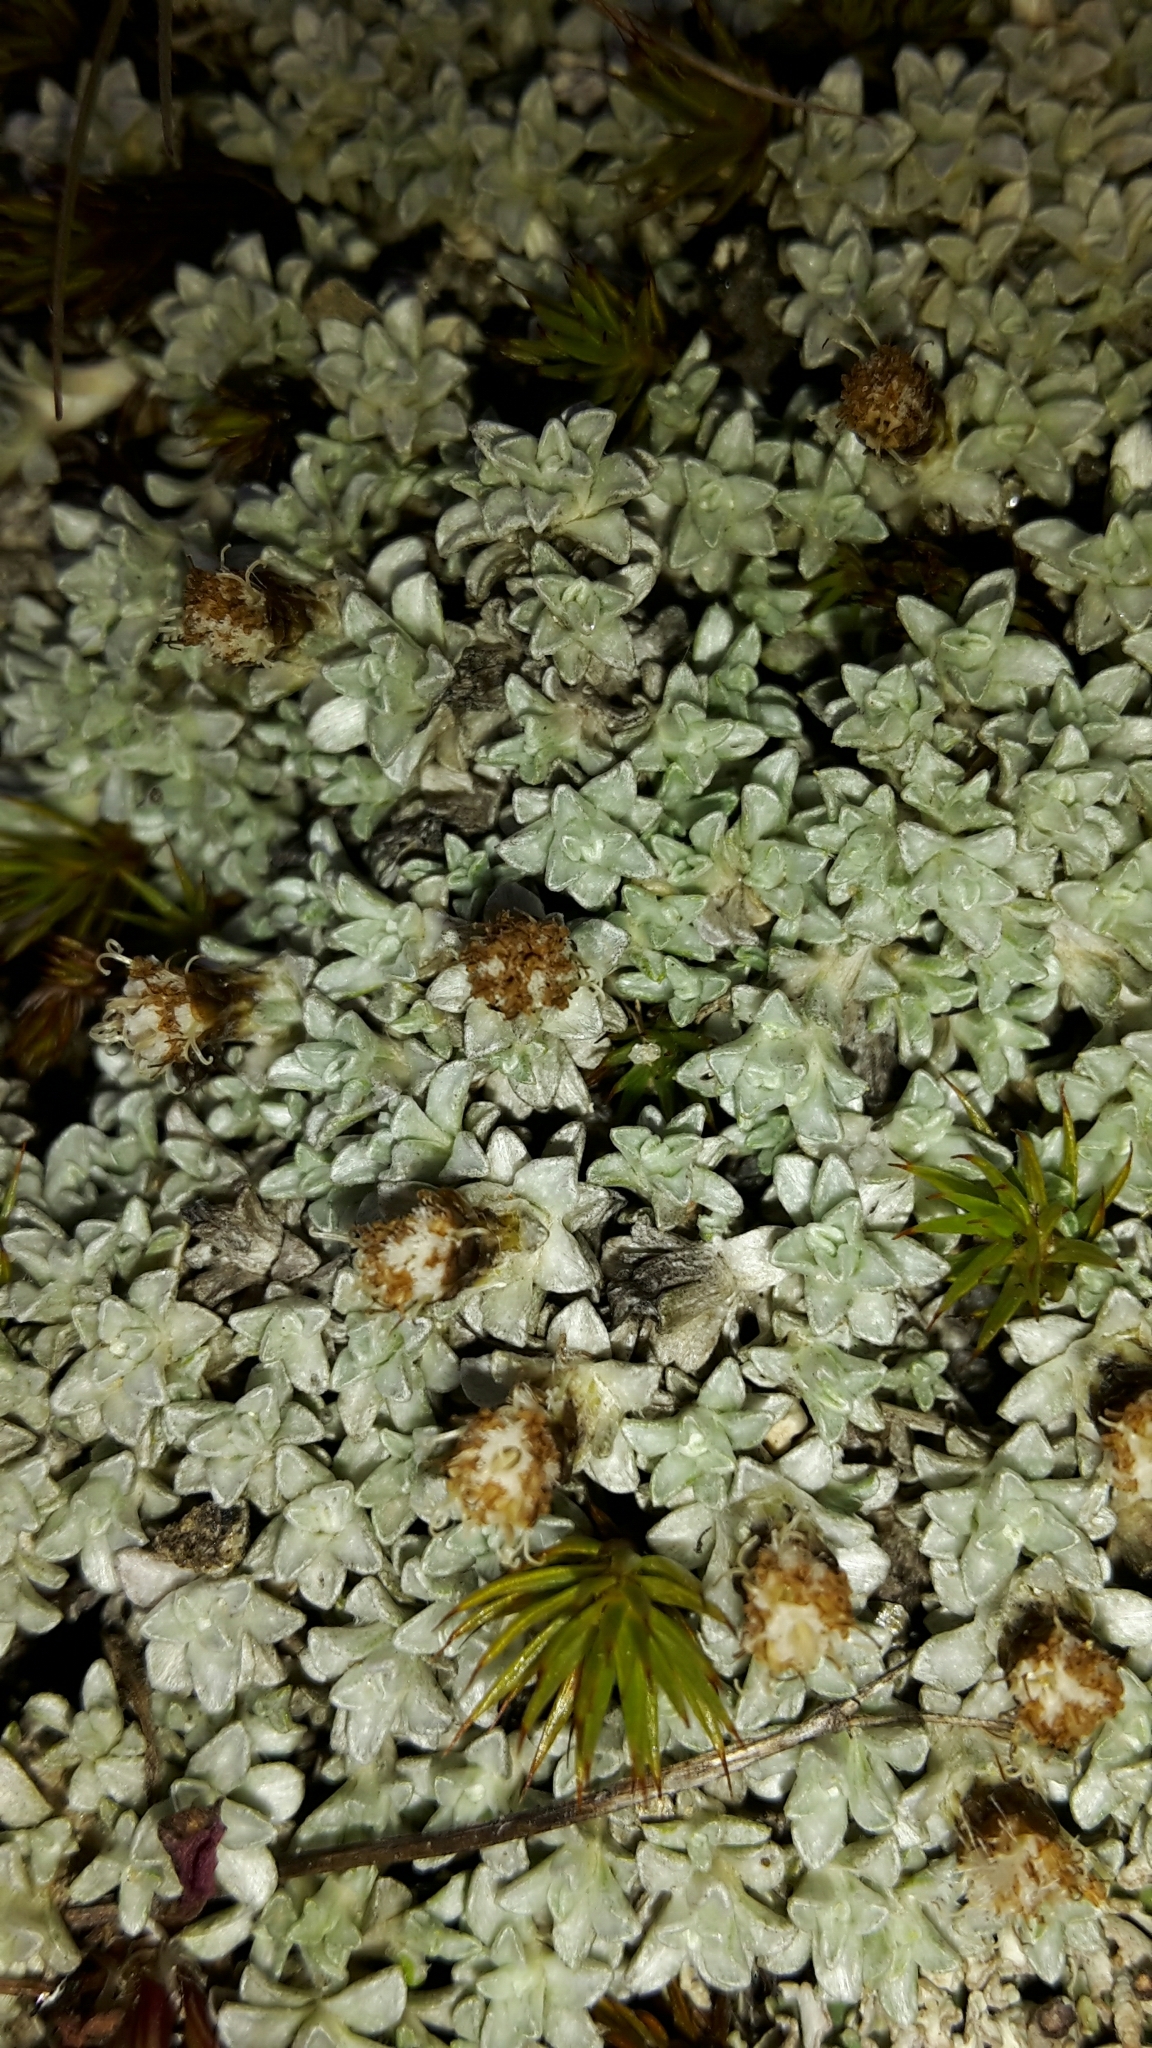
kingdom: Plantae
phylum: Tracheophyta
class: Magnoliopsida
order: Asterales
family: Asteraceae
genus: Raoulia
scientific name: Raoulia apicinigra
